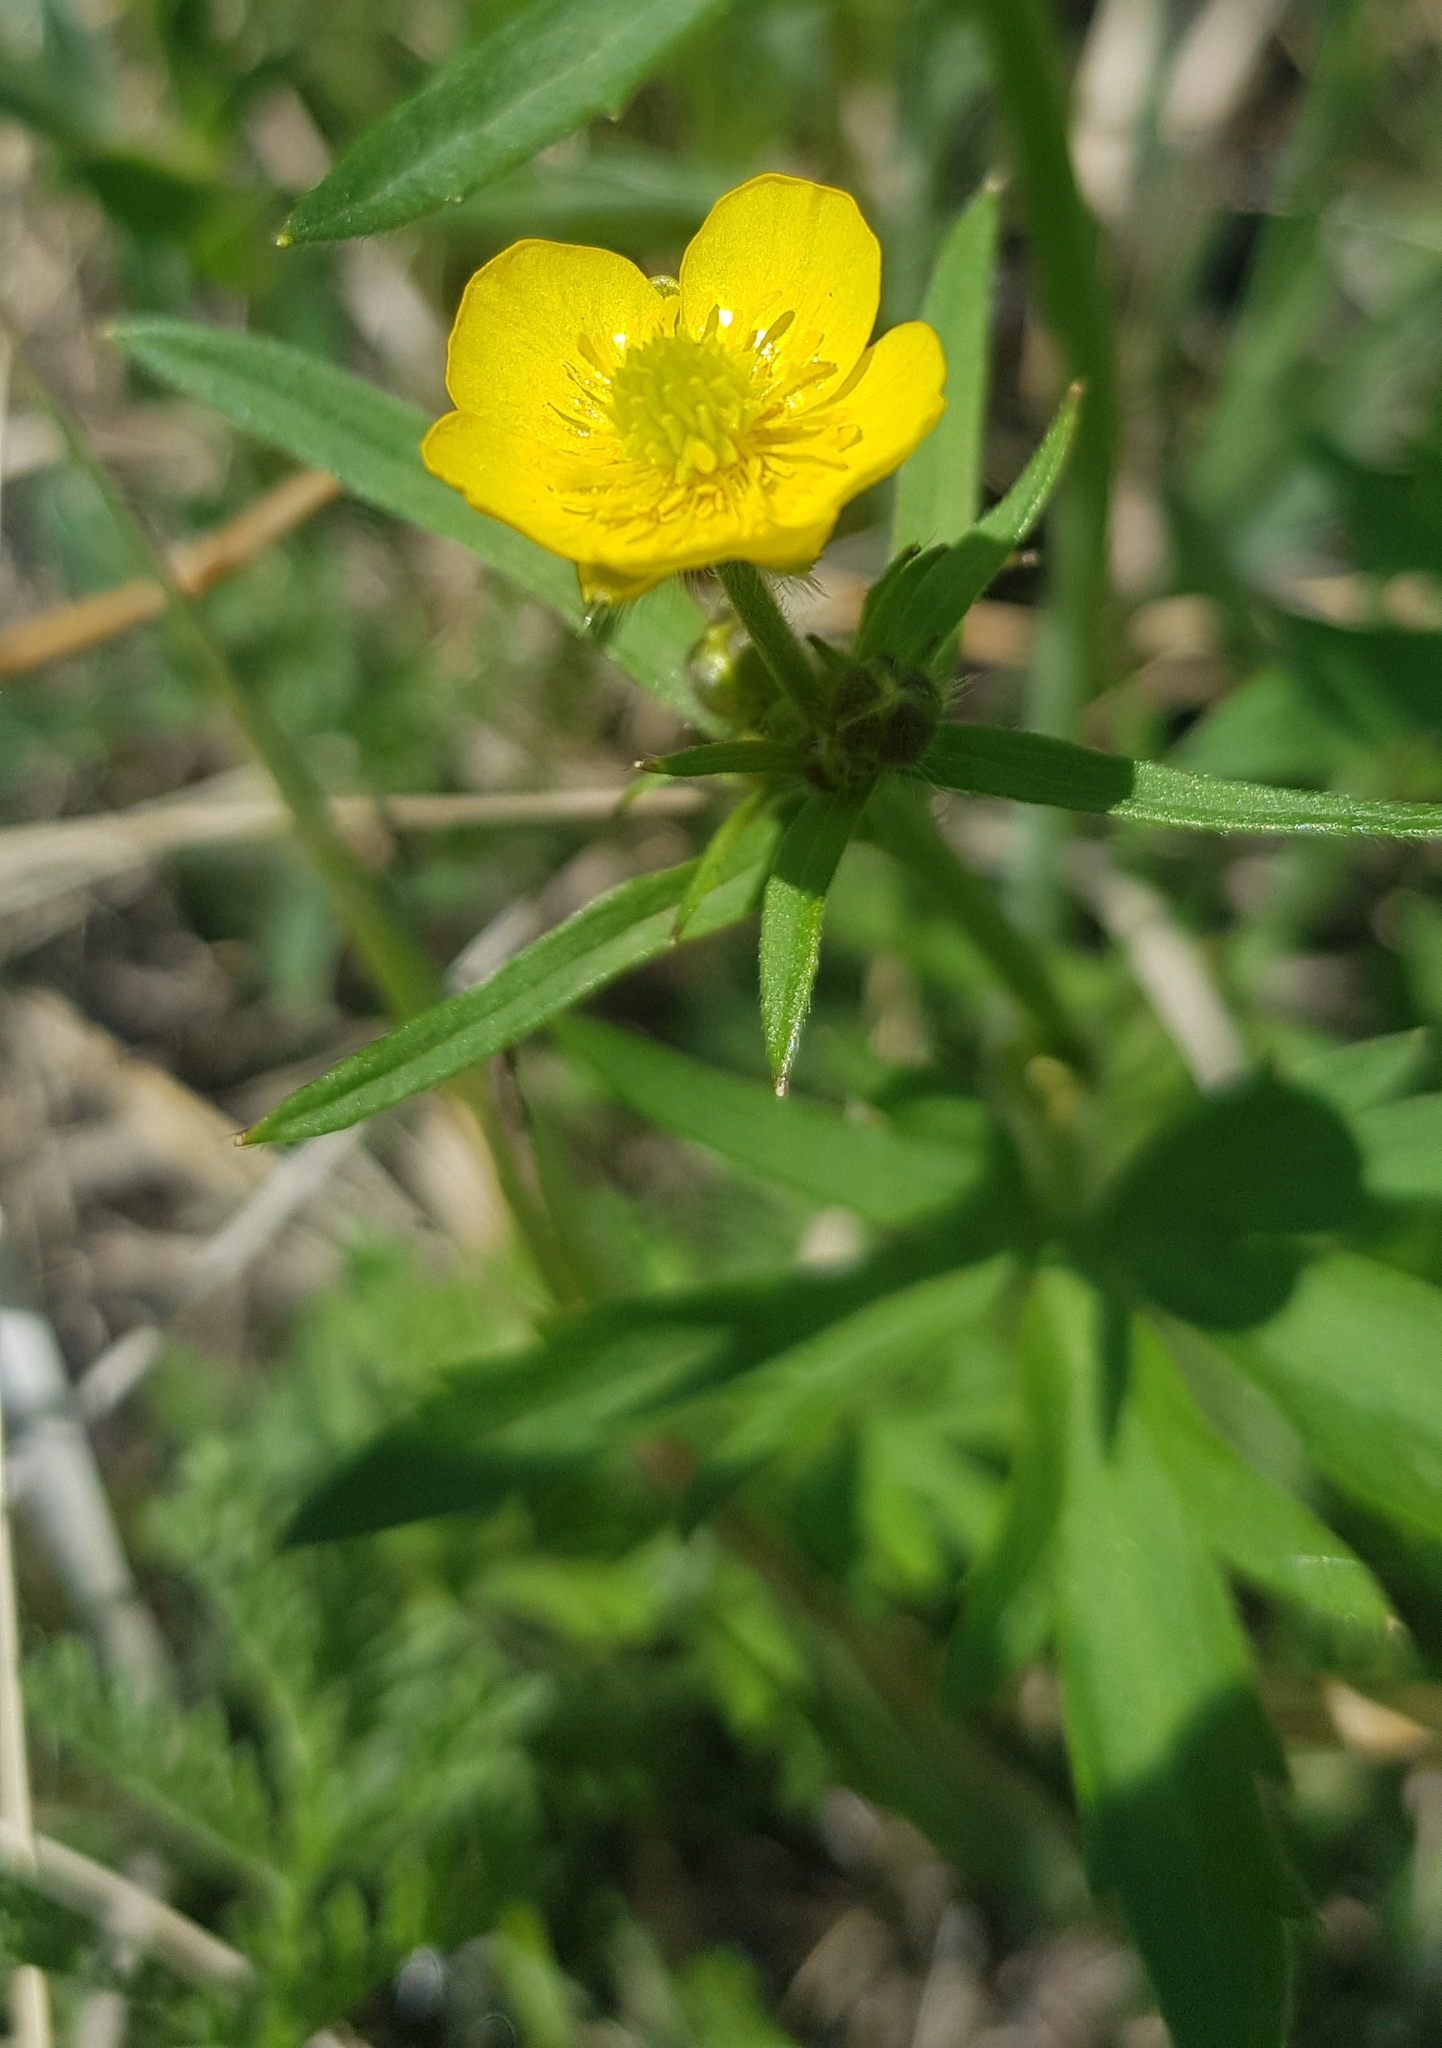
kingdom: Plantae
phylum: Tracheophyta
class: Magnoliopsida
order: Ranunculales
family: Ranunculaceae
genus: Ranunculus
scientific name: Ranunculus japonicus
